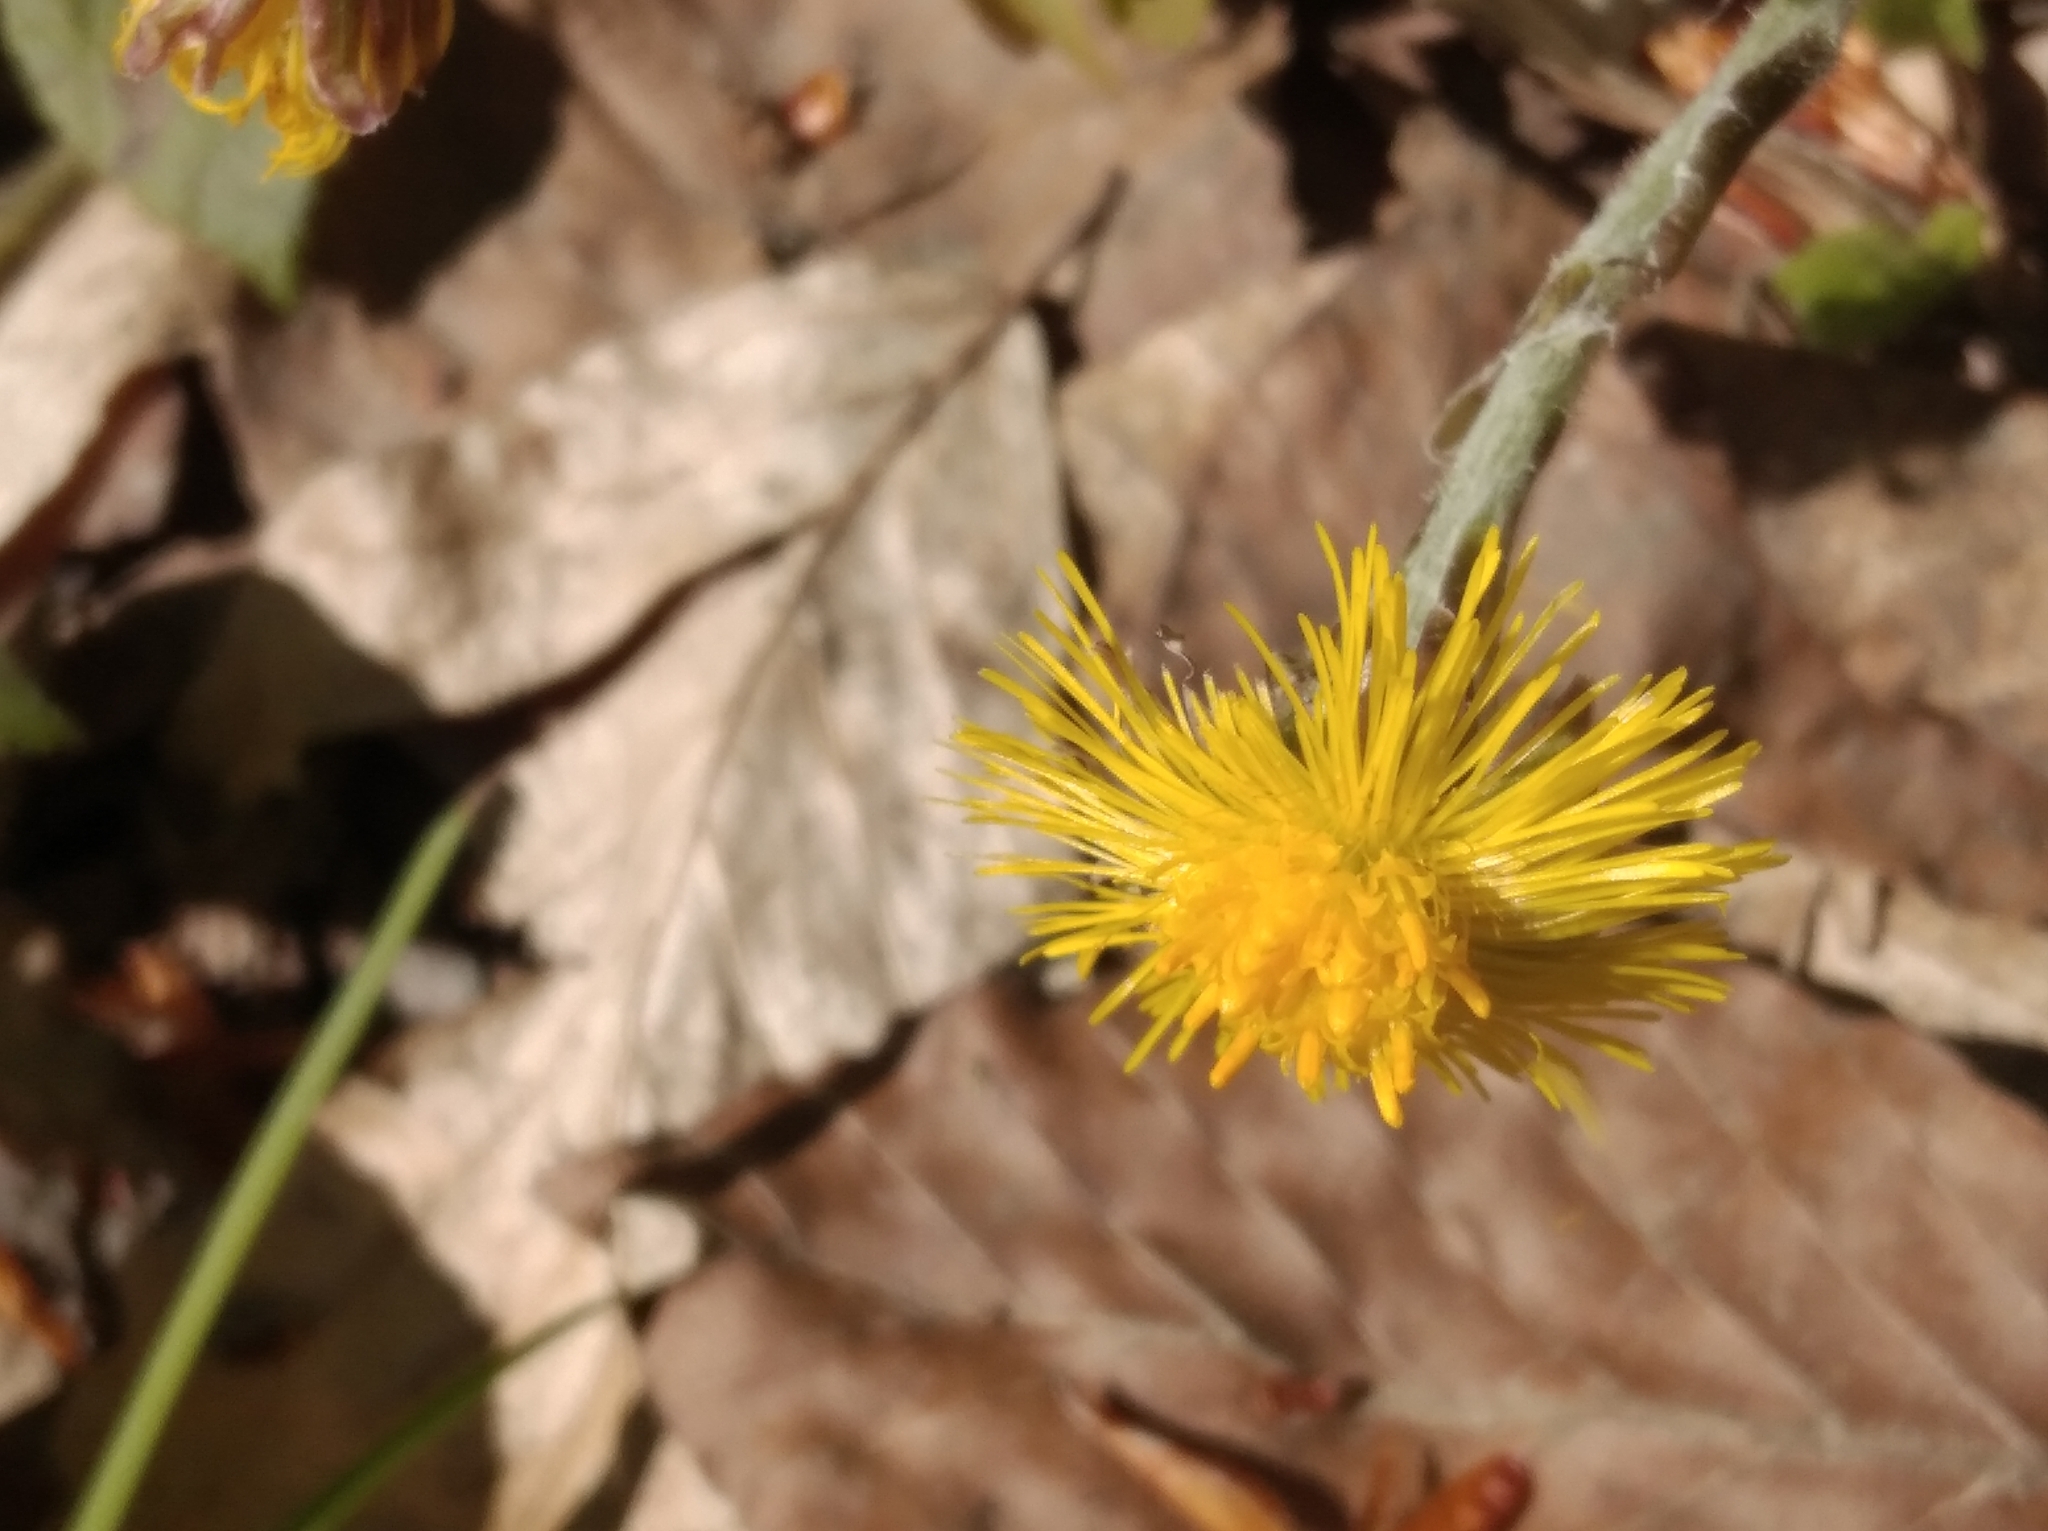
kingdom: Plantae
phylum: Tracheophyta
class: Magnoliopsida
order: Asterales
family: Asteraceae
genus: Tussilago
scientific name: Tussilago farfara
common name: Coltsfoot
